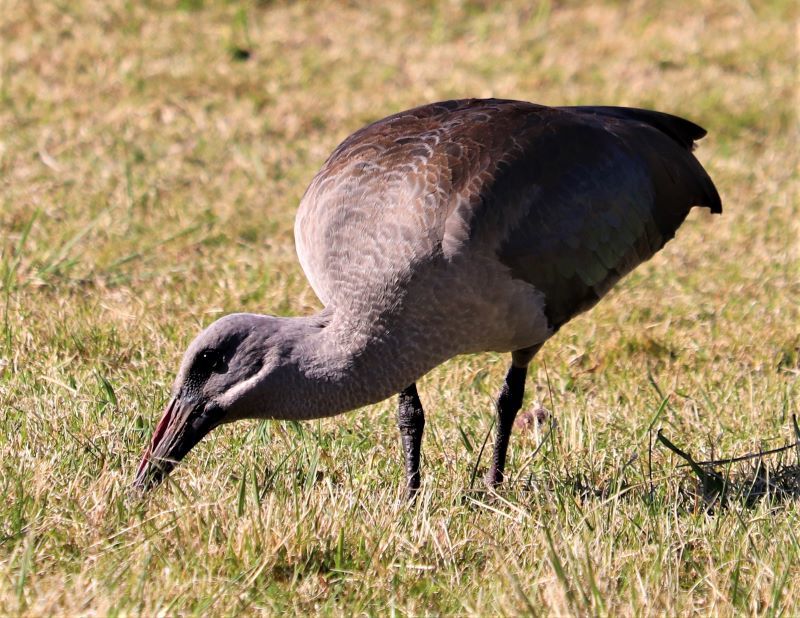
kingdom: Animalia
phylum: Chordata
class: Aves
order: Pelecaniformes
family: Threskiornithidae
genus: Bostrychia
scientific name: Bostrychia hagedash
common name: Hadada ibis
